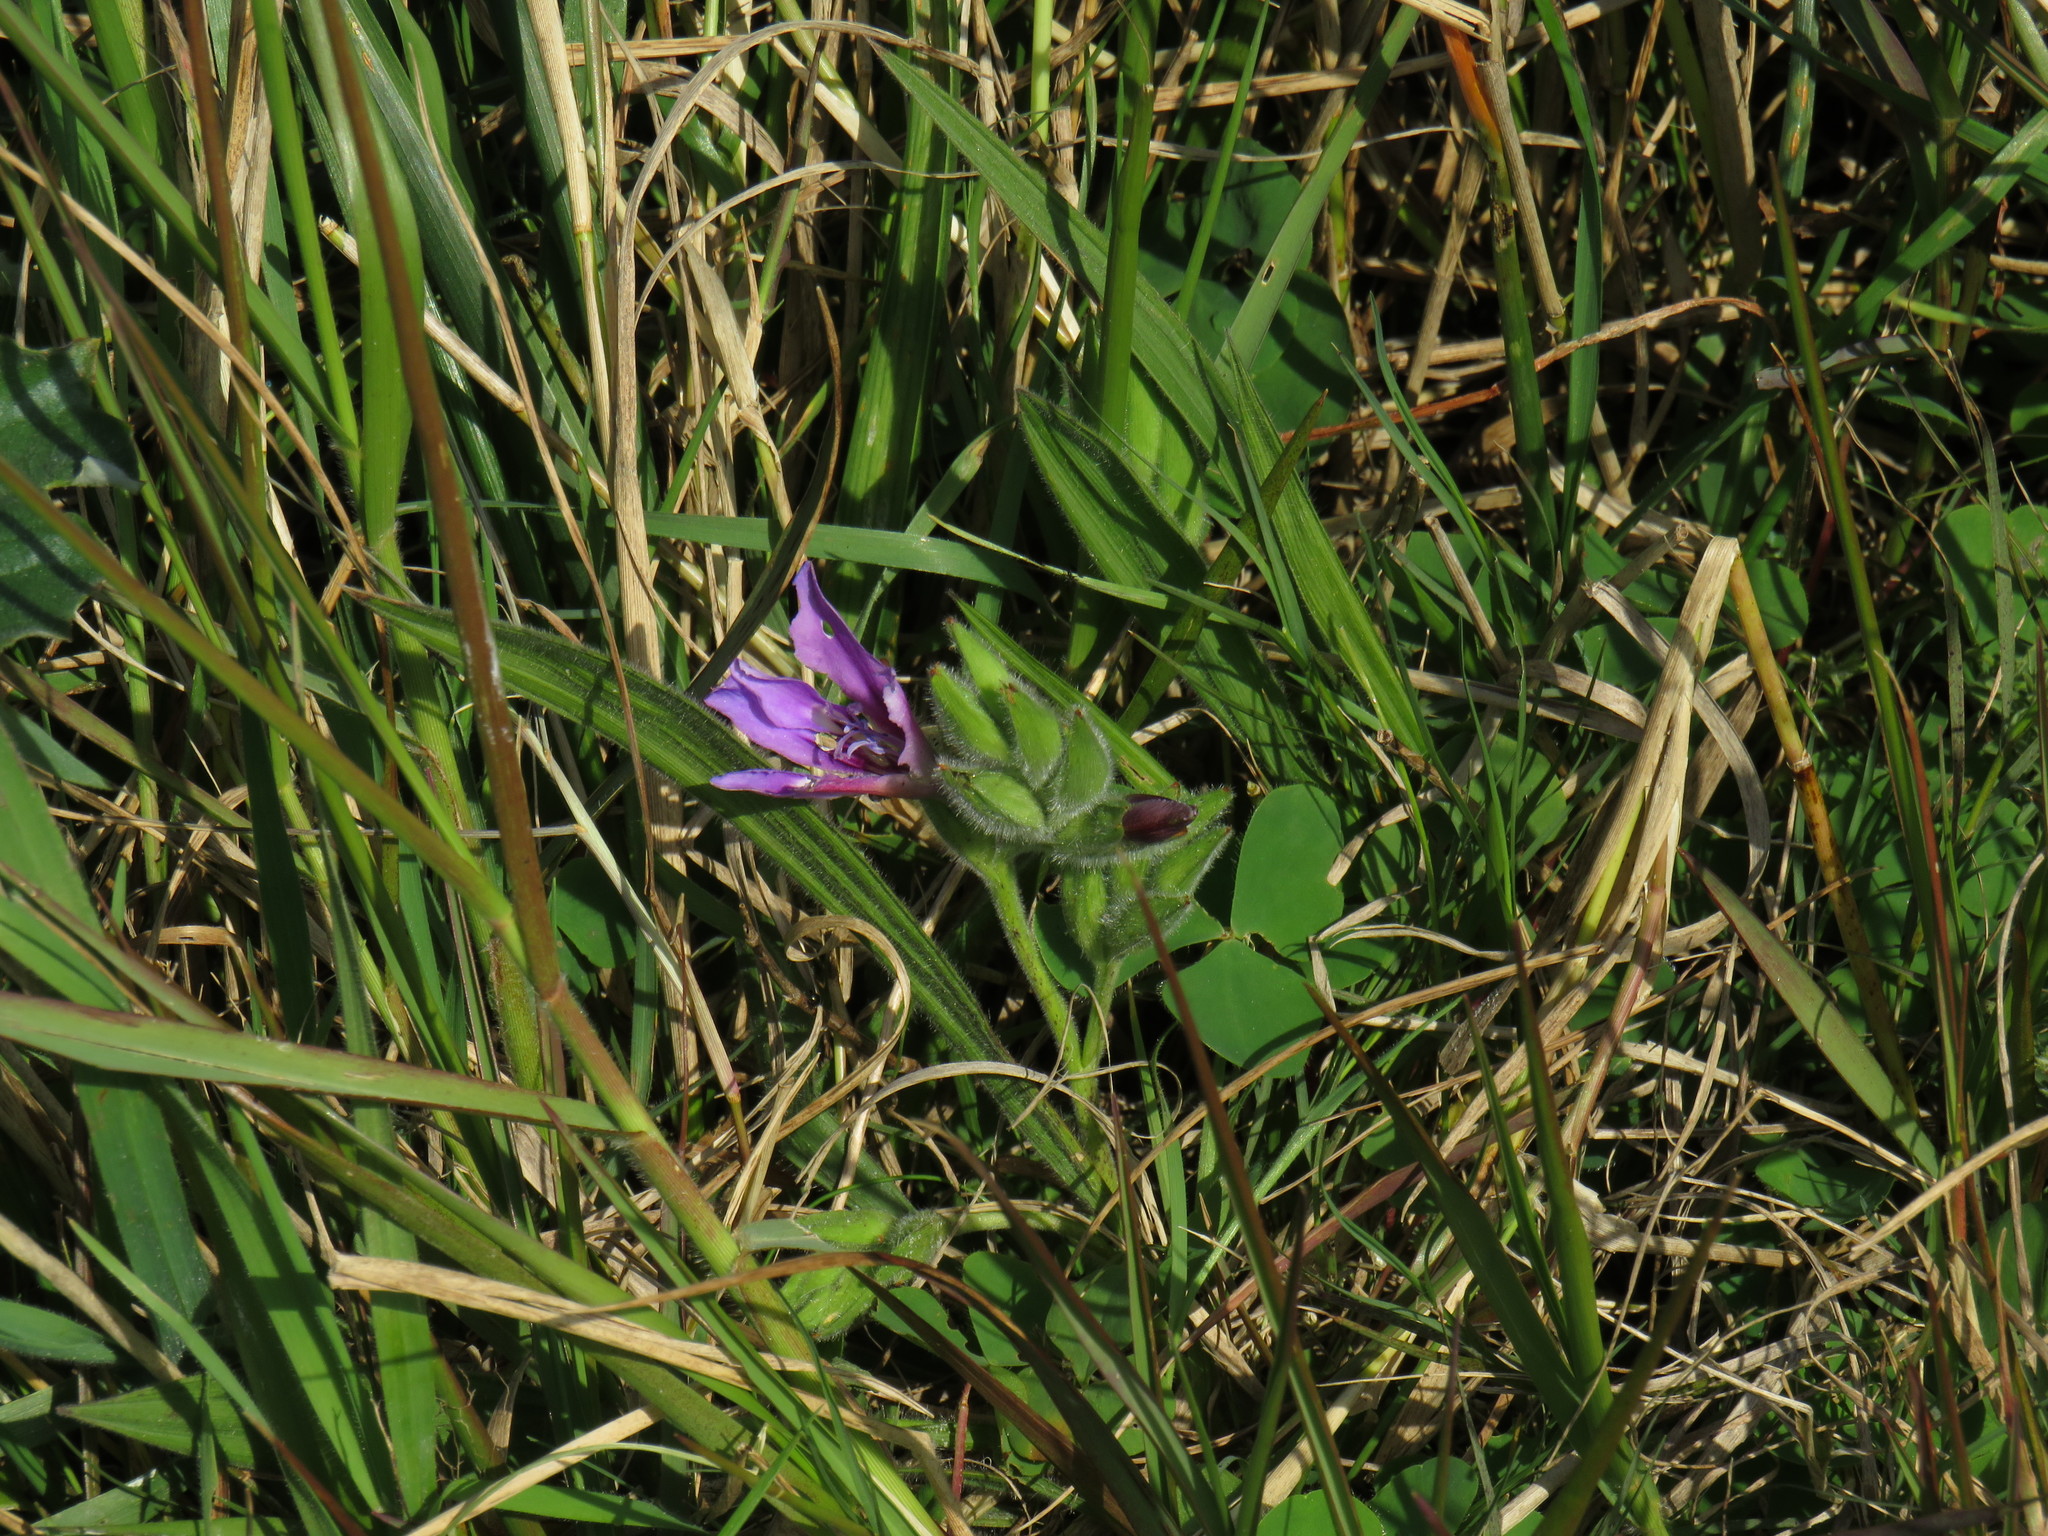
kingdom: Plantae
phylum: Tracheophyta
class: Liliopsida
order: Asparagales
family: Iridaceae
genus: Babiana
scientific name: Babiana ambigua
